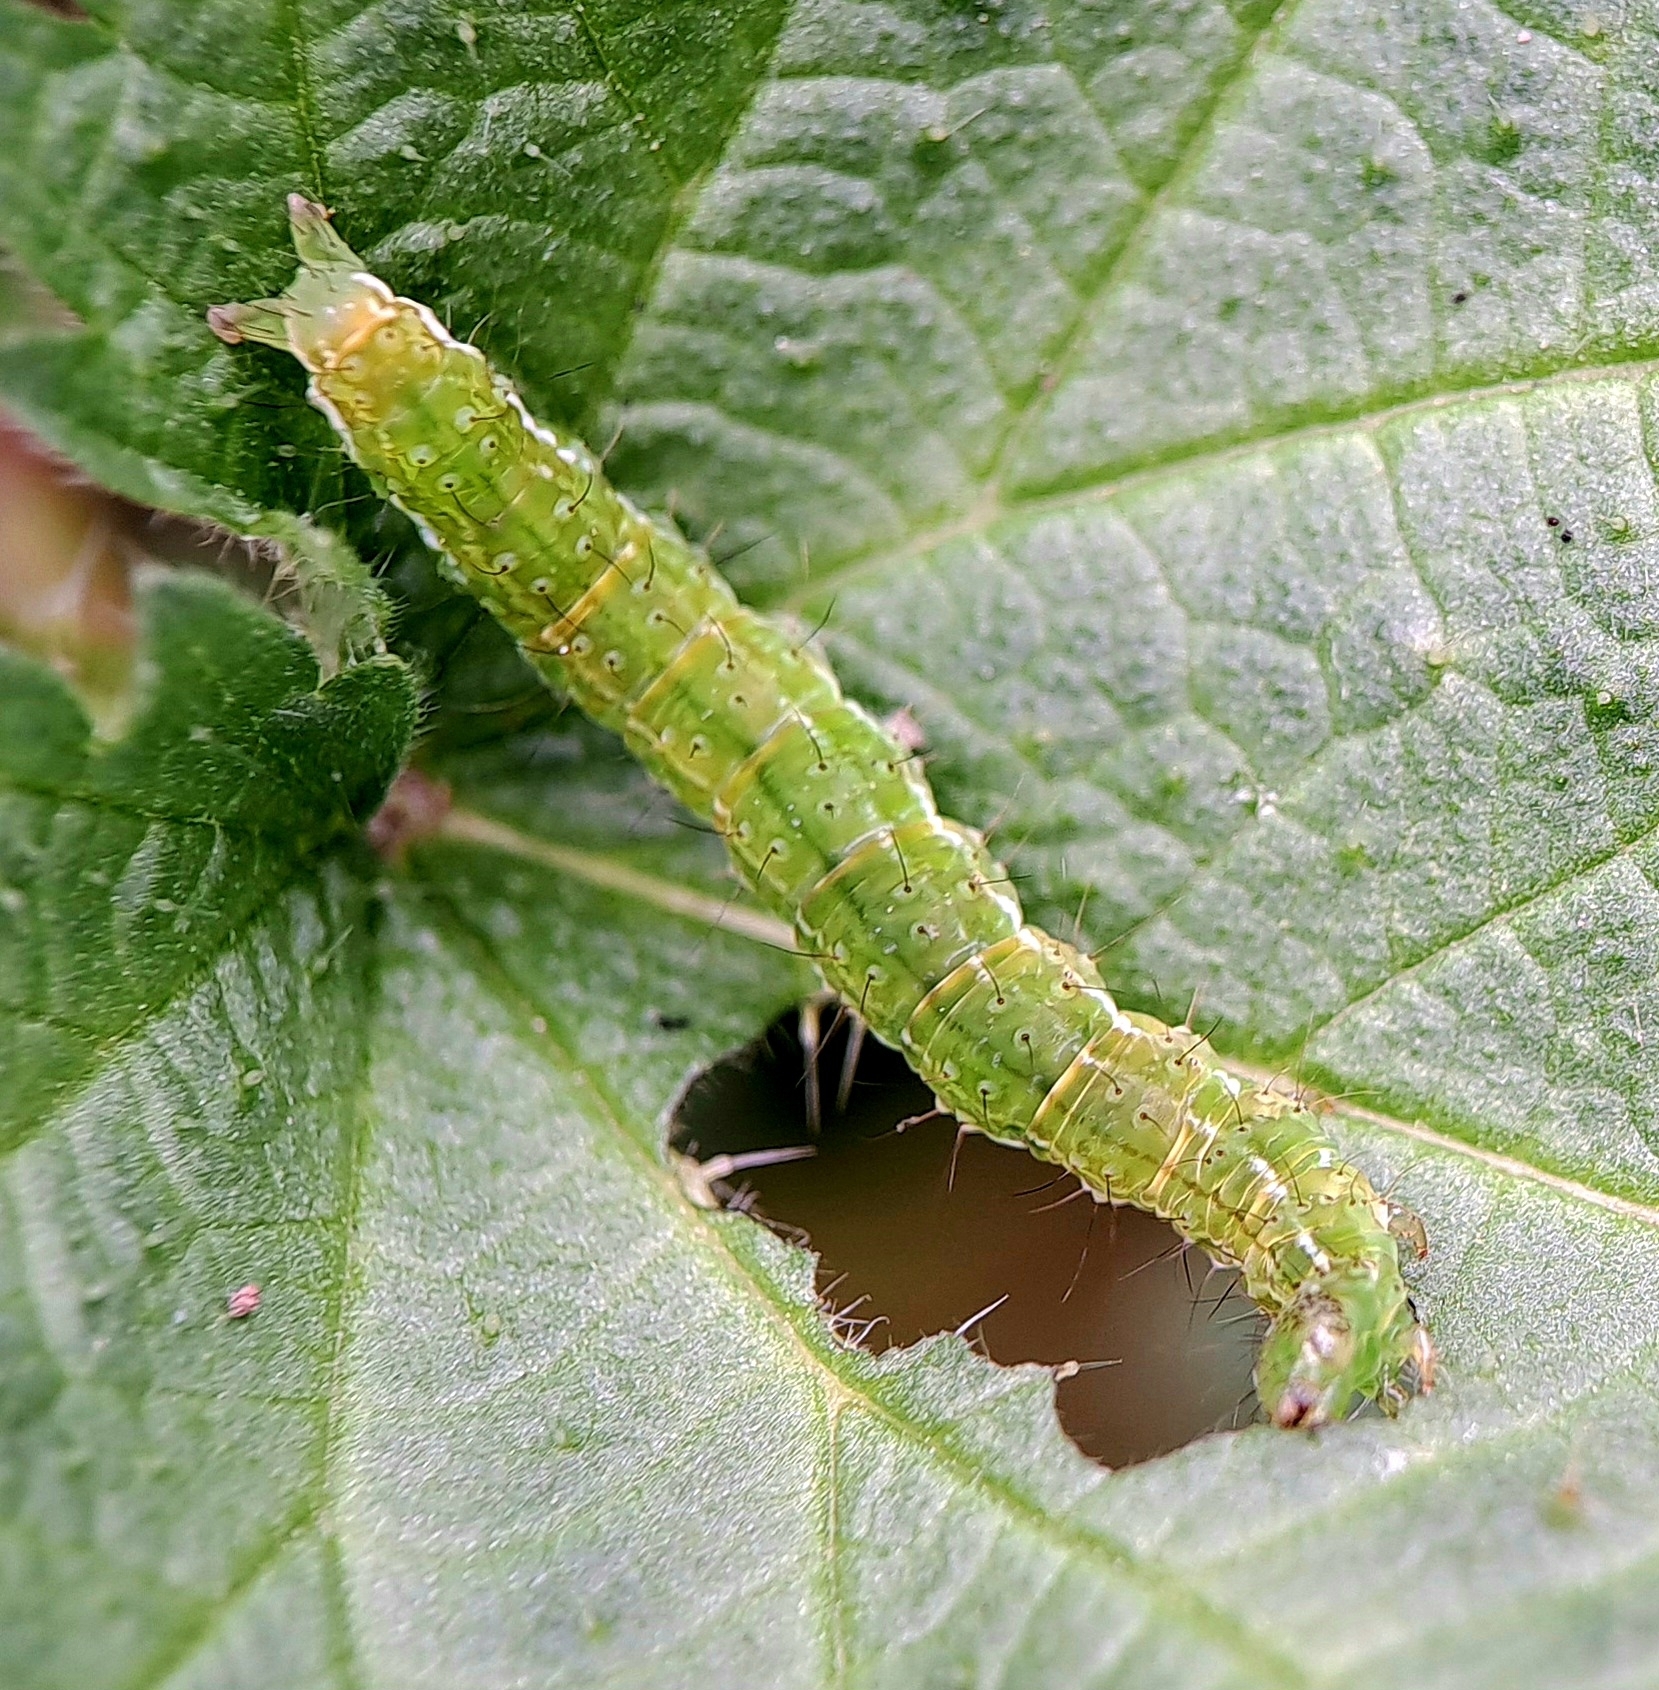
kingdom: Animalia
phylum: Arthropoda
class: Insecta
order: Lepidoptera
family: Erebidae
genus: Hypena
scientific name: Hypena proboscidalis
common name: Snout
